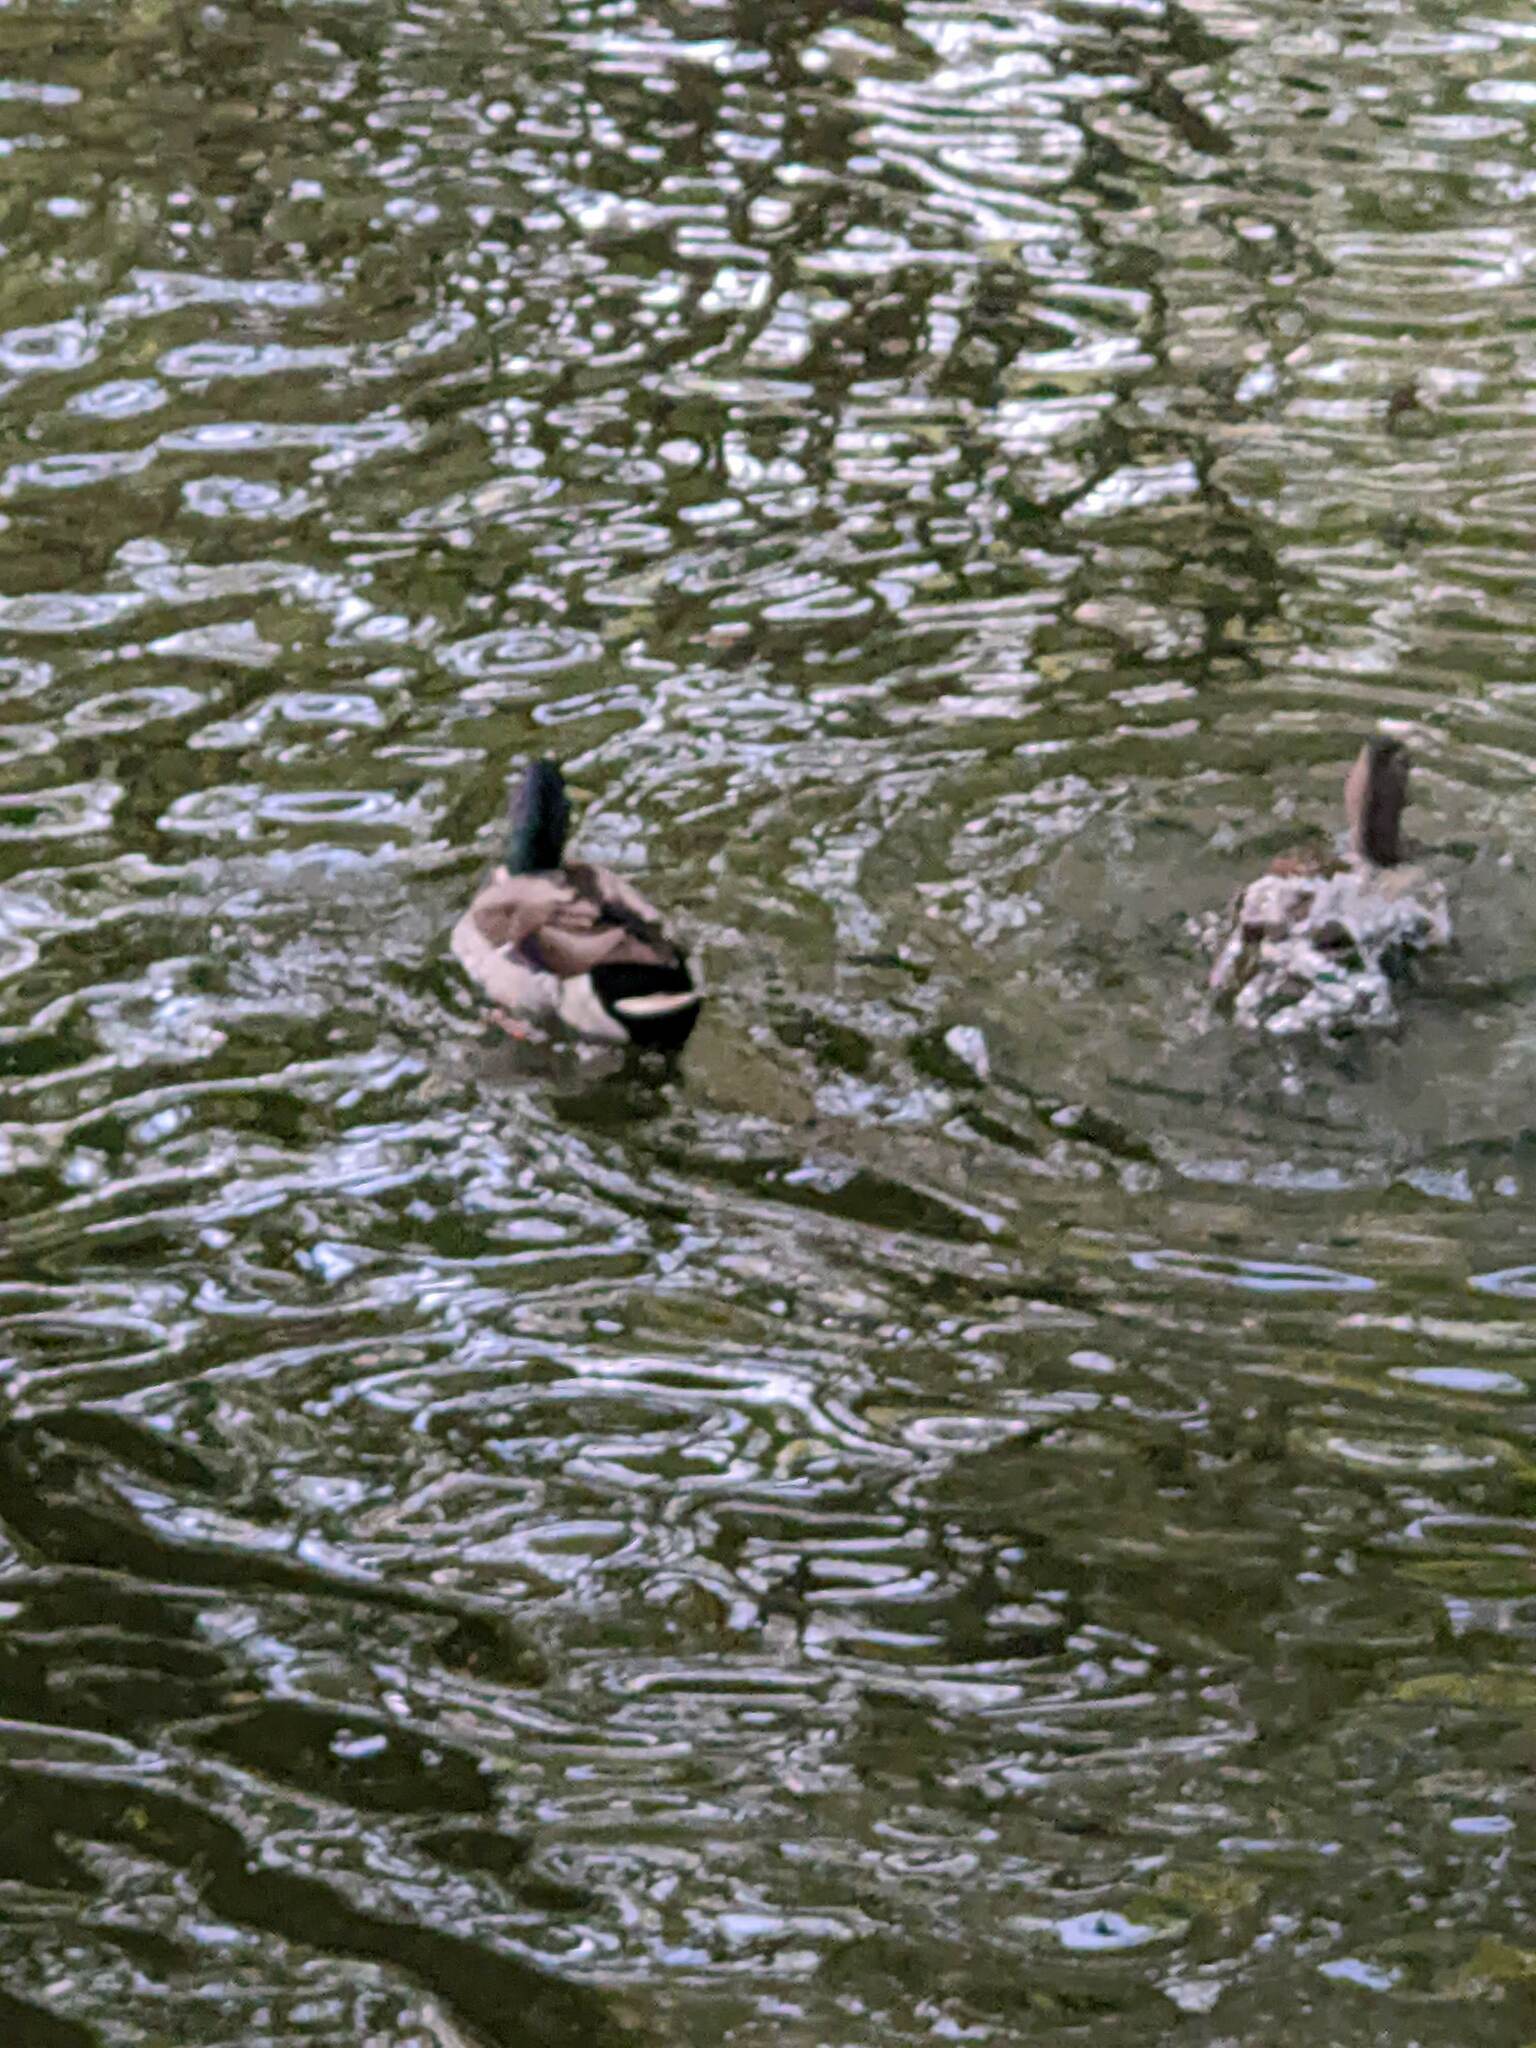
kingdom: Animalia
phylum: Chordata
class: Aves
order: Anseriformes
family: Anatidae
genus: Anas
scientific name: Anas platyrhynchos
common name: Mallard
